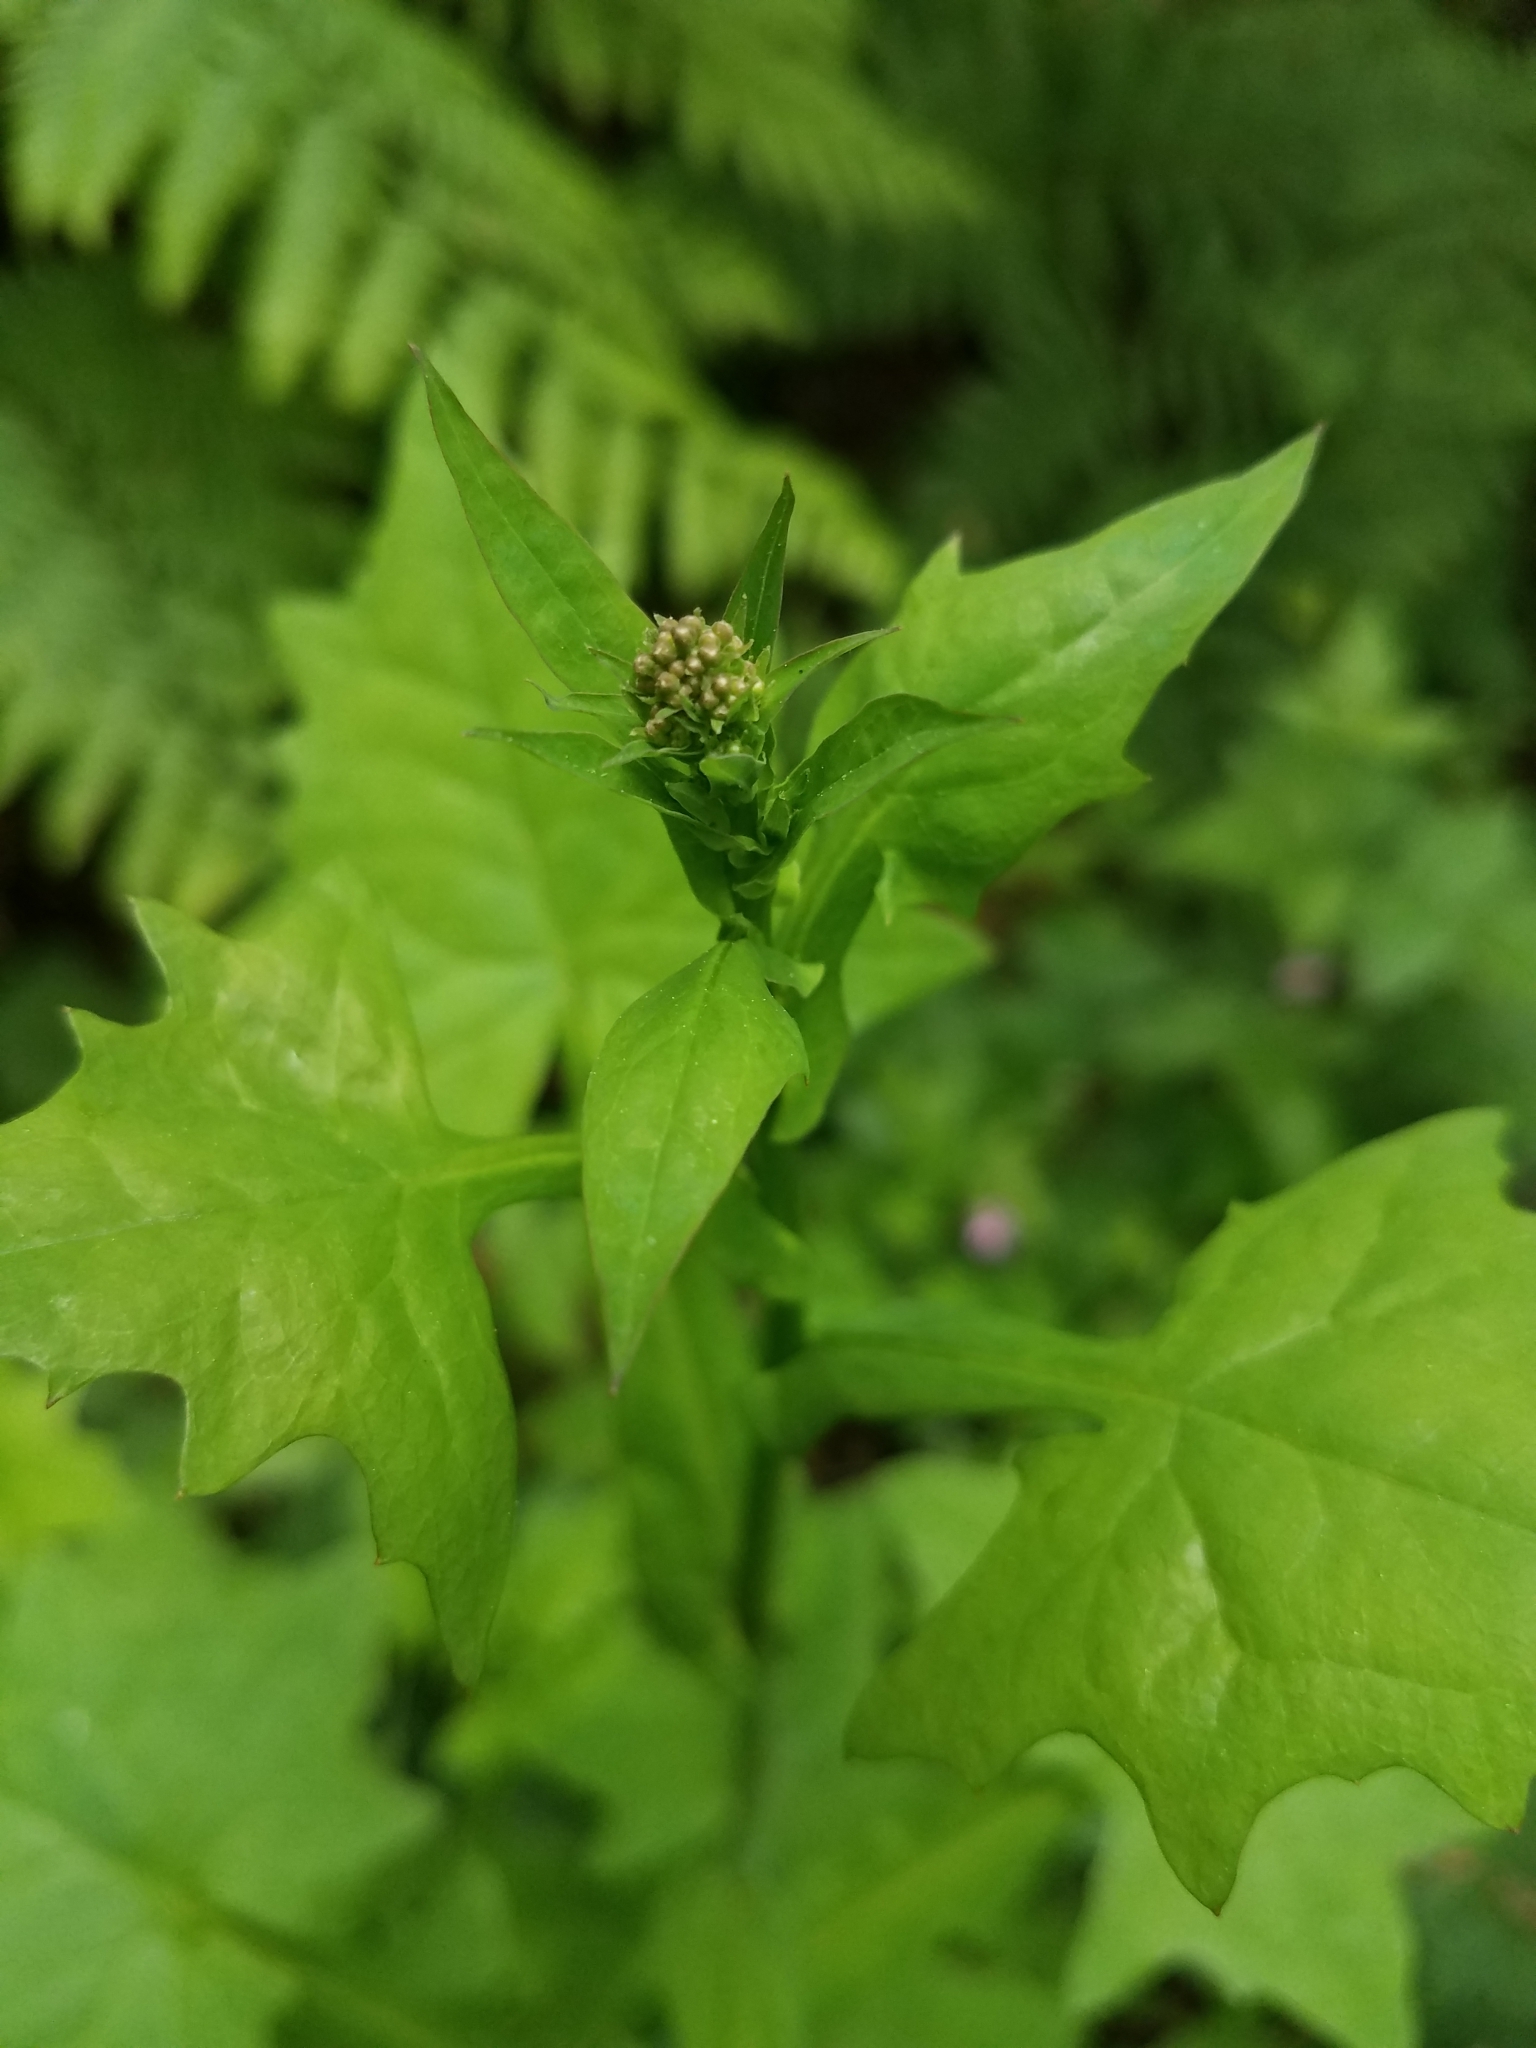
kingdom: Plantae
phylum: Tracheophyta
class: Magnoliopsida
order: Asterales
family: Asteraceae
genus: Mycelis
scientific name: Mycelis muralis
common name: Wall lettuce
